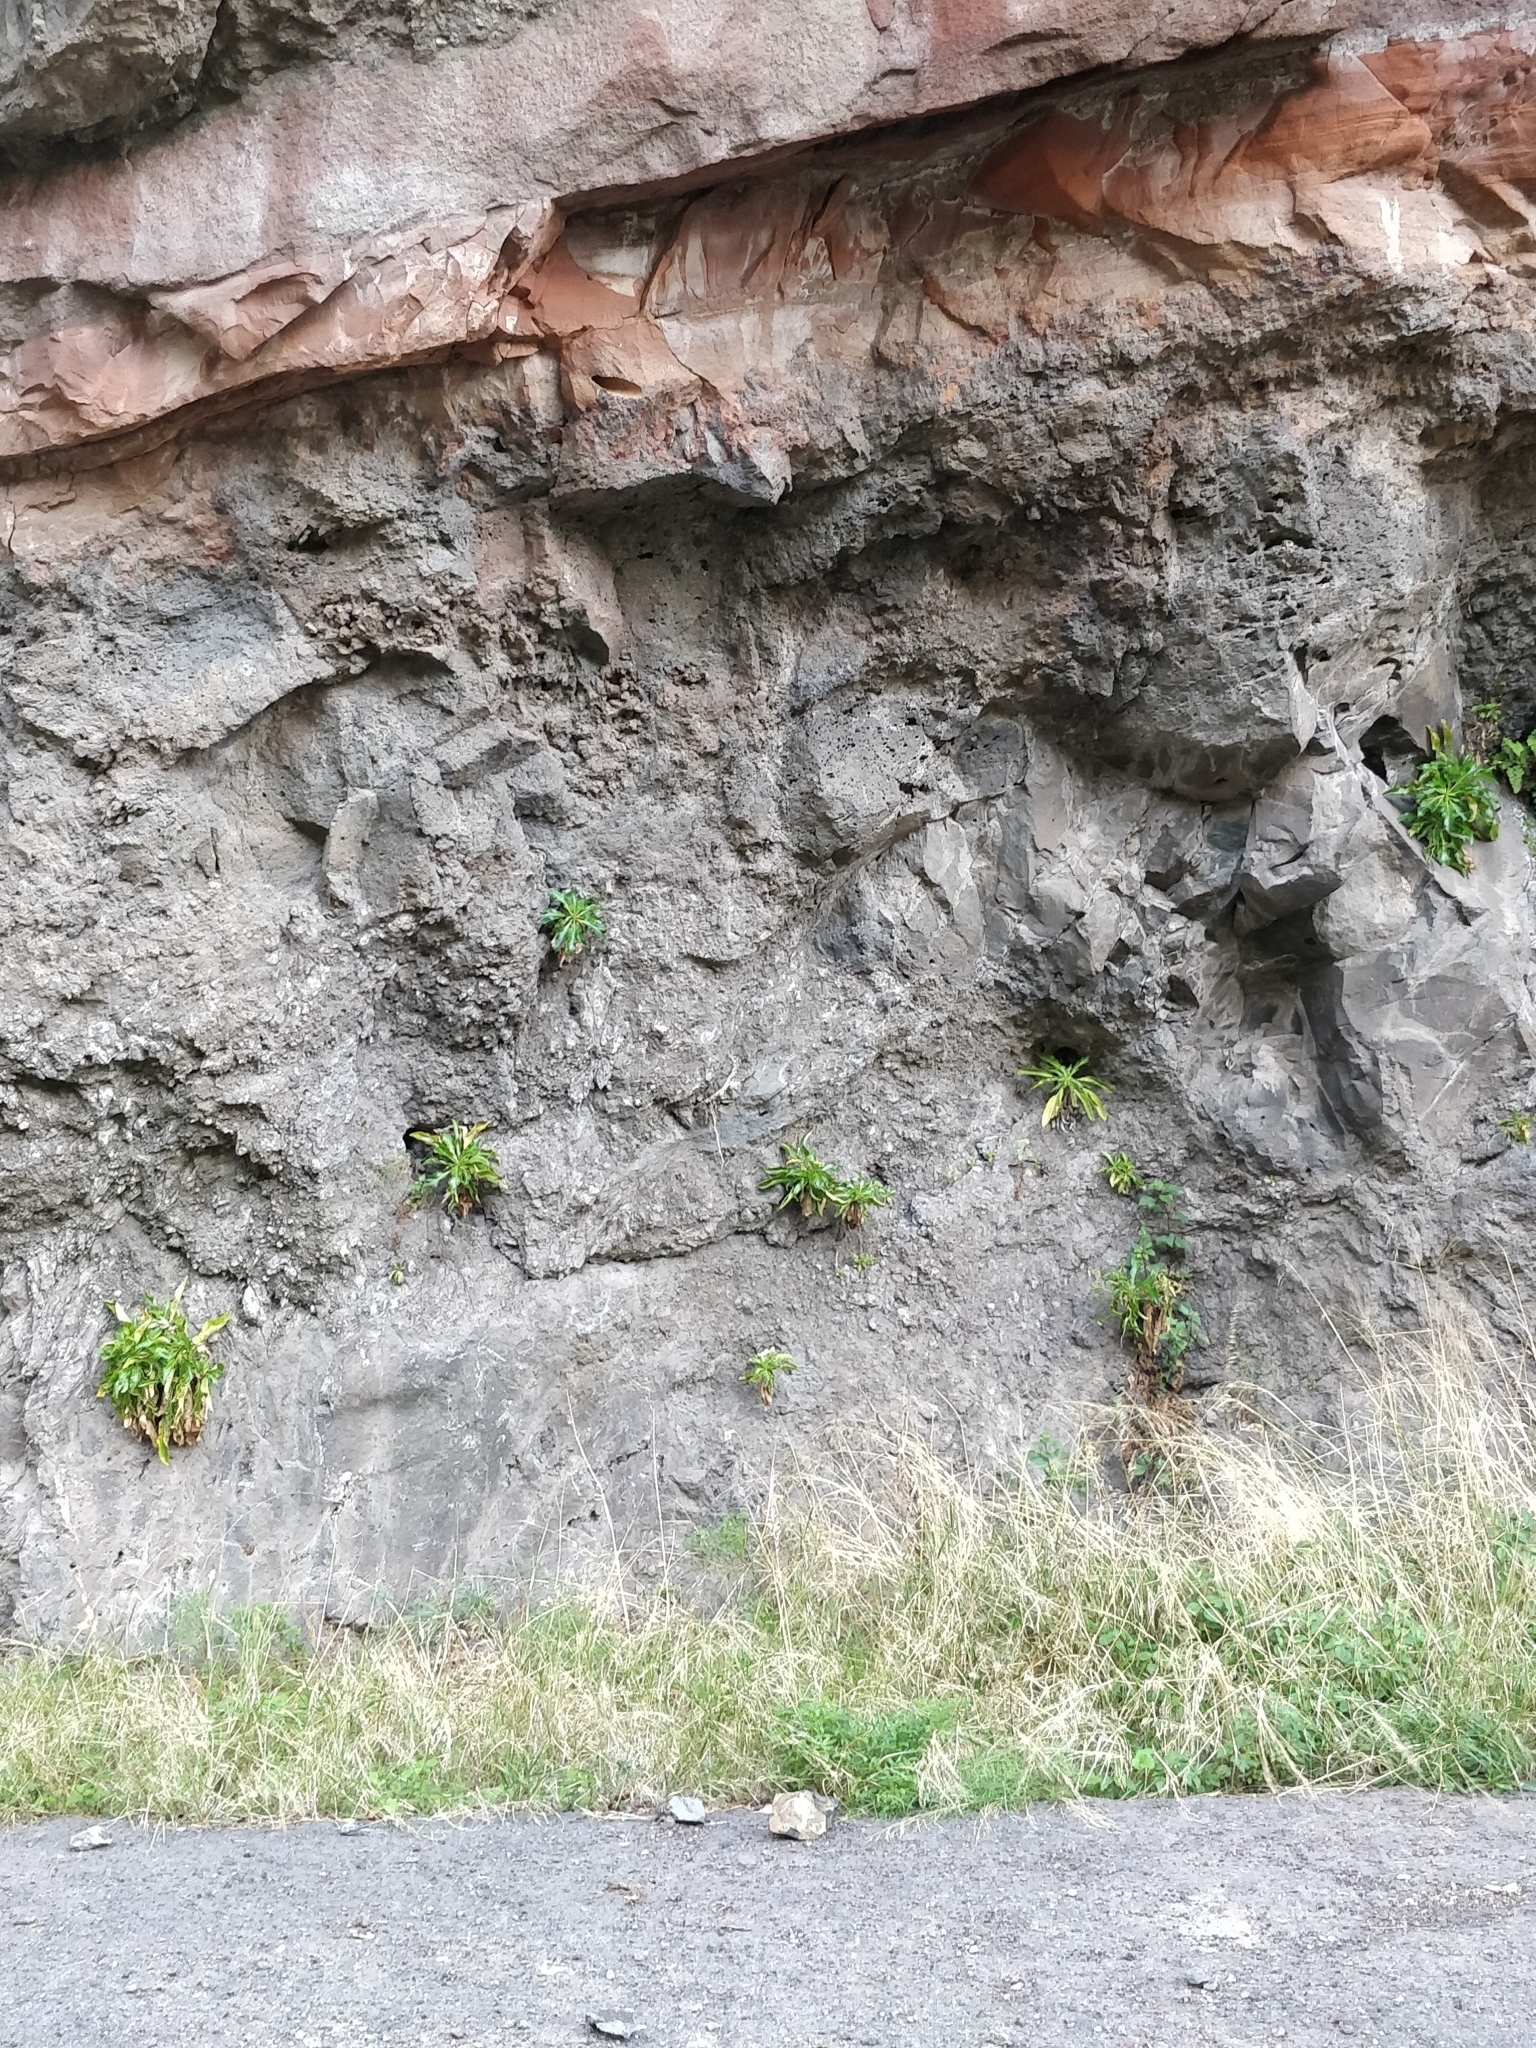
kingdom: Plantae
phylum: Tracheophyta
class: Magnoliopsida
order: Asterales
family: Campanulaceae
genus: Musschia
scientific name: Musschia aurea
